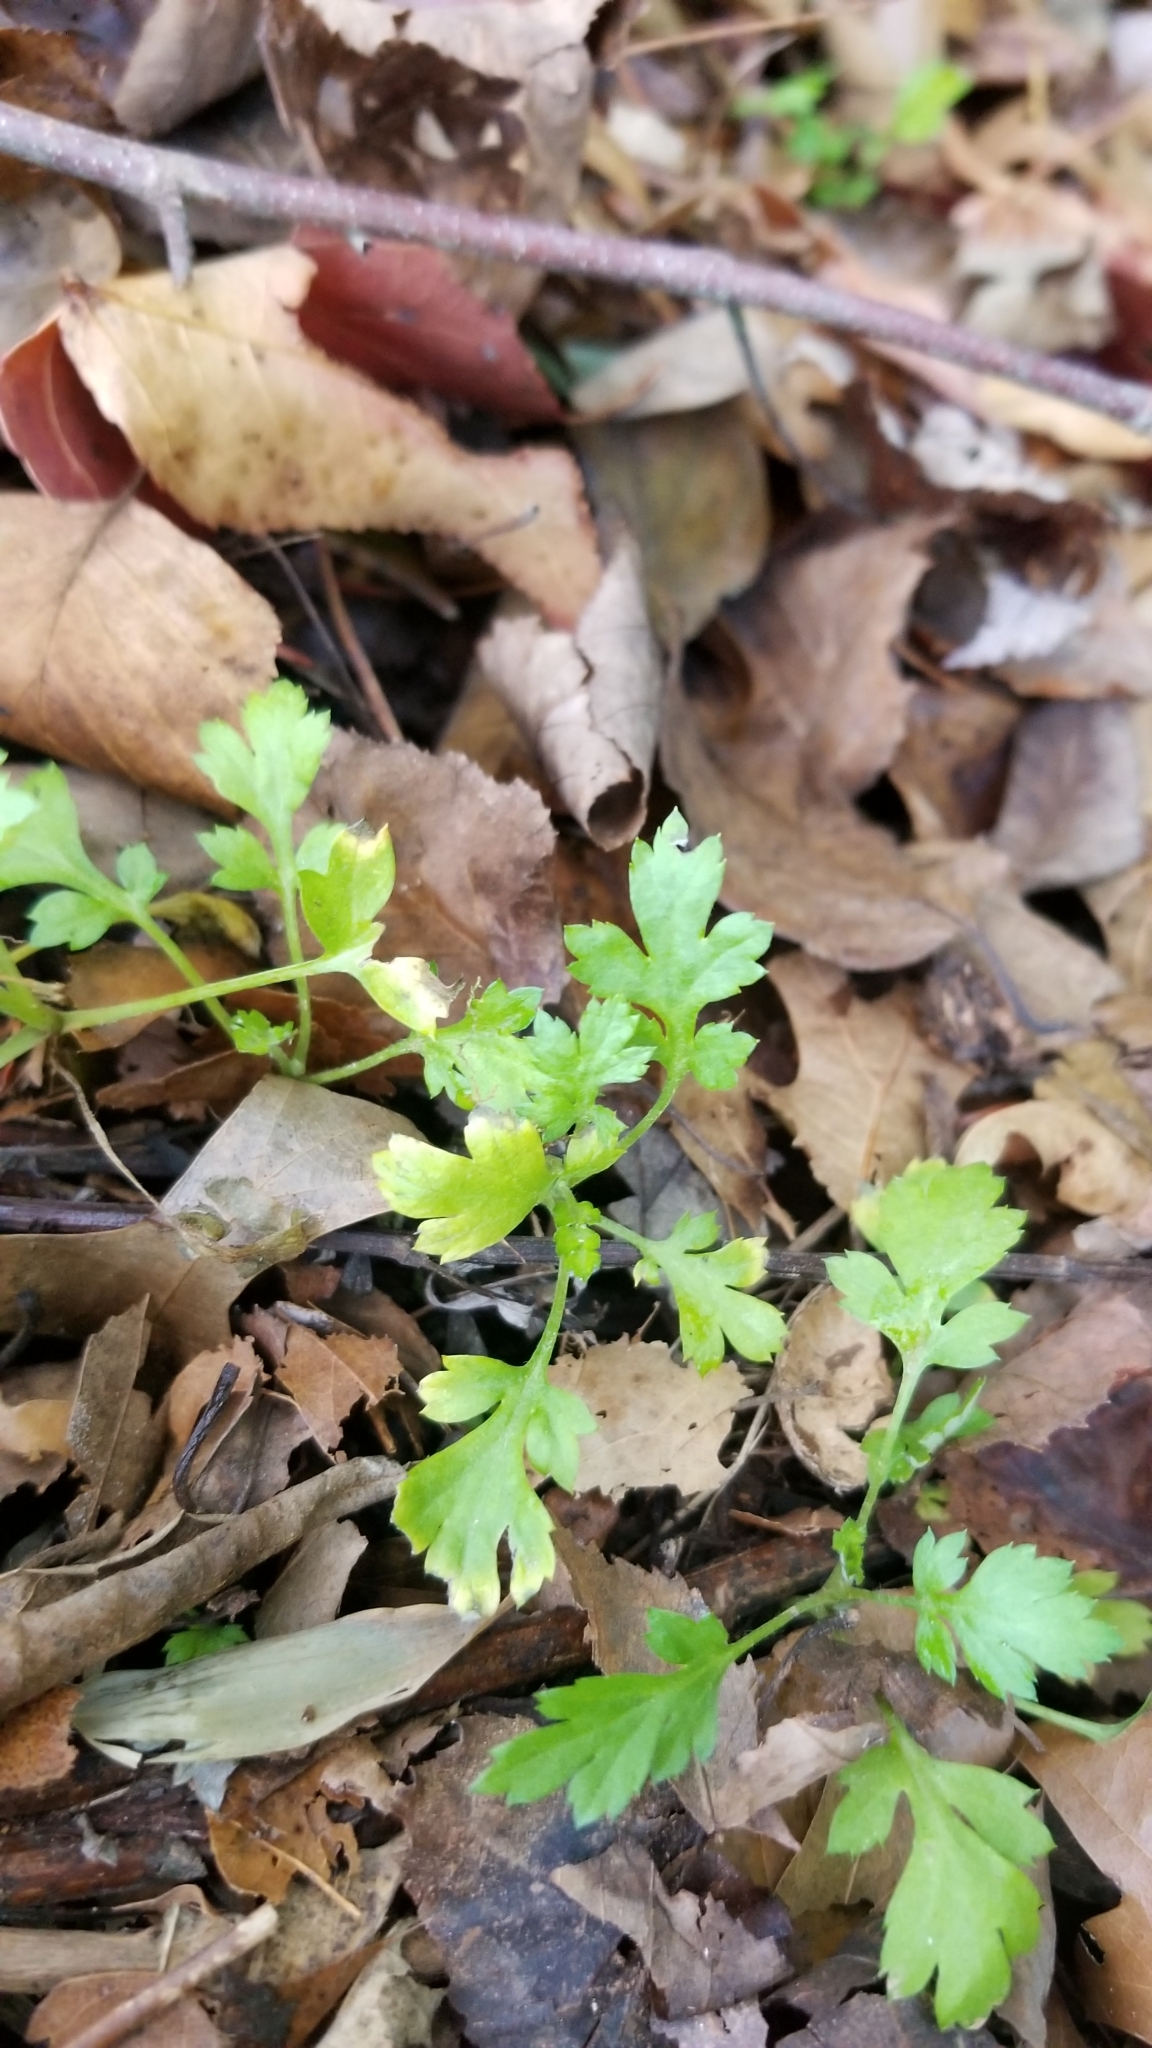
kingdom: Plantae
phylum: Tracheophyta
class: Magnoliopsida
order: Asterales
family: Asteraceae
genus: Artemisia
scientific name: Artemisia vulgaris
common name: Mugwort
